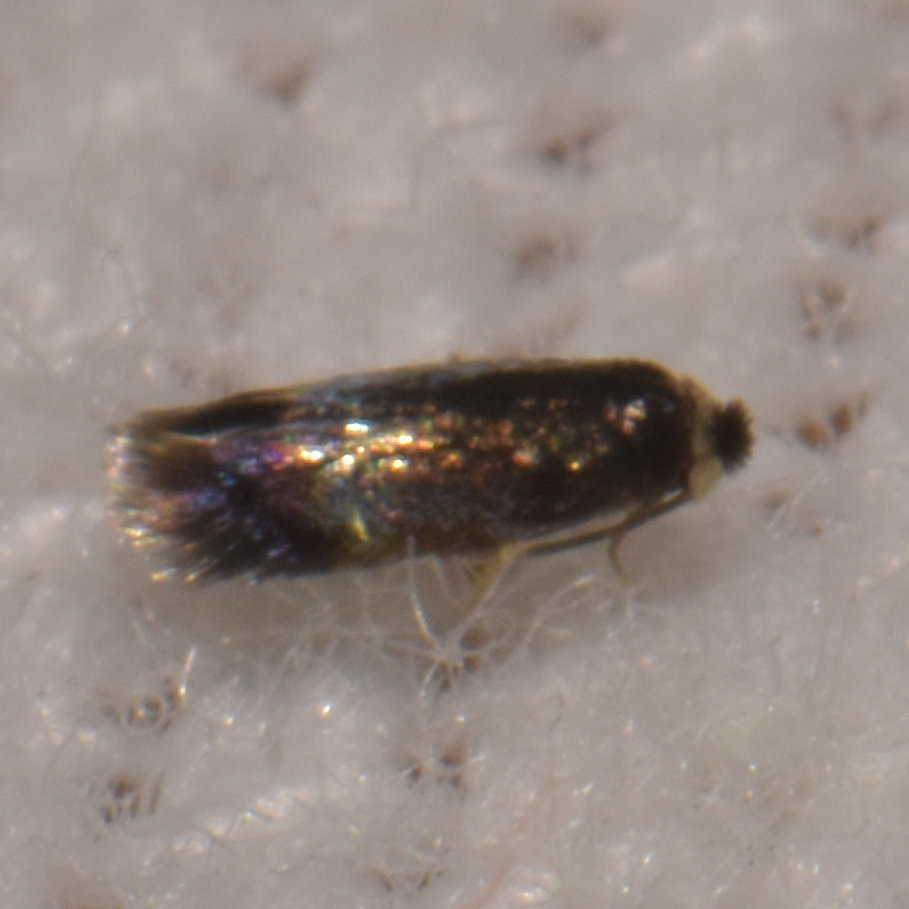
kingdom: Animalia
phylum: Arthropoda
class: Insecta
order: Lepidoptera
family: Nepticulidae
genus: Stigmella
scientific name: Stigmella multispicata
